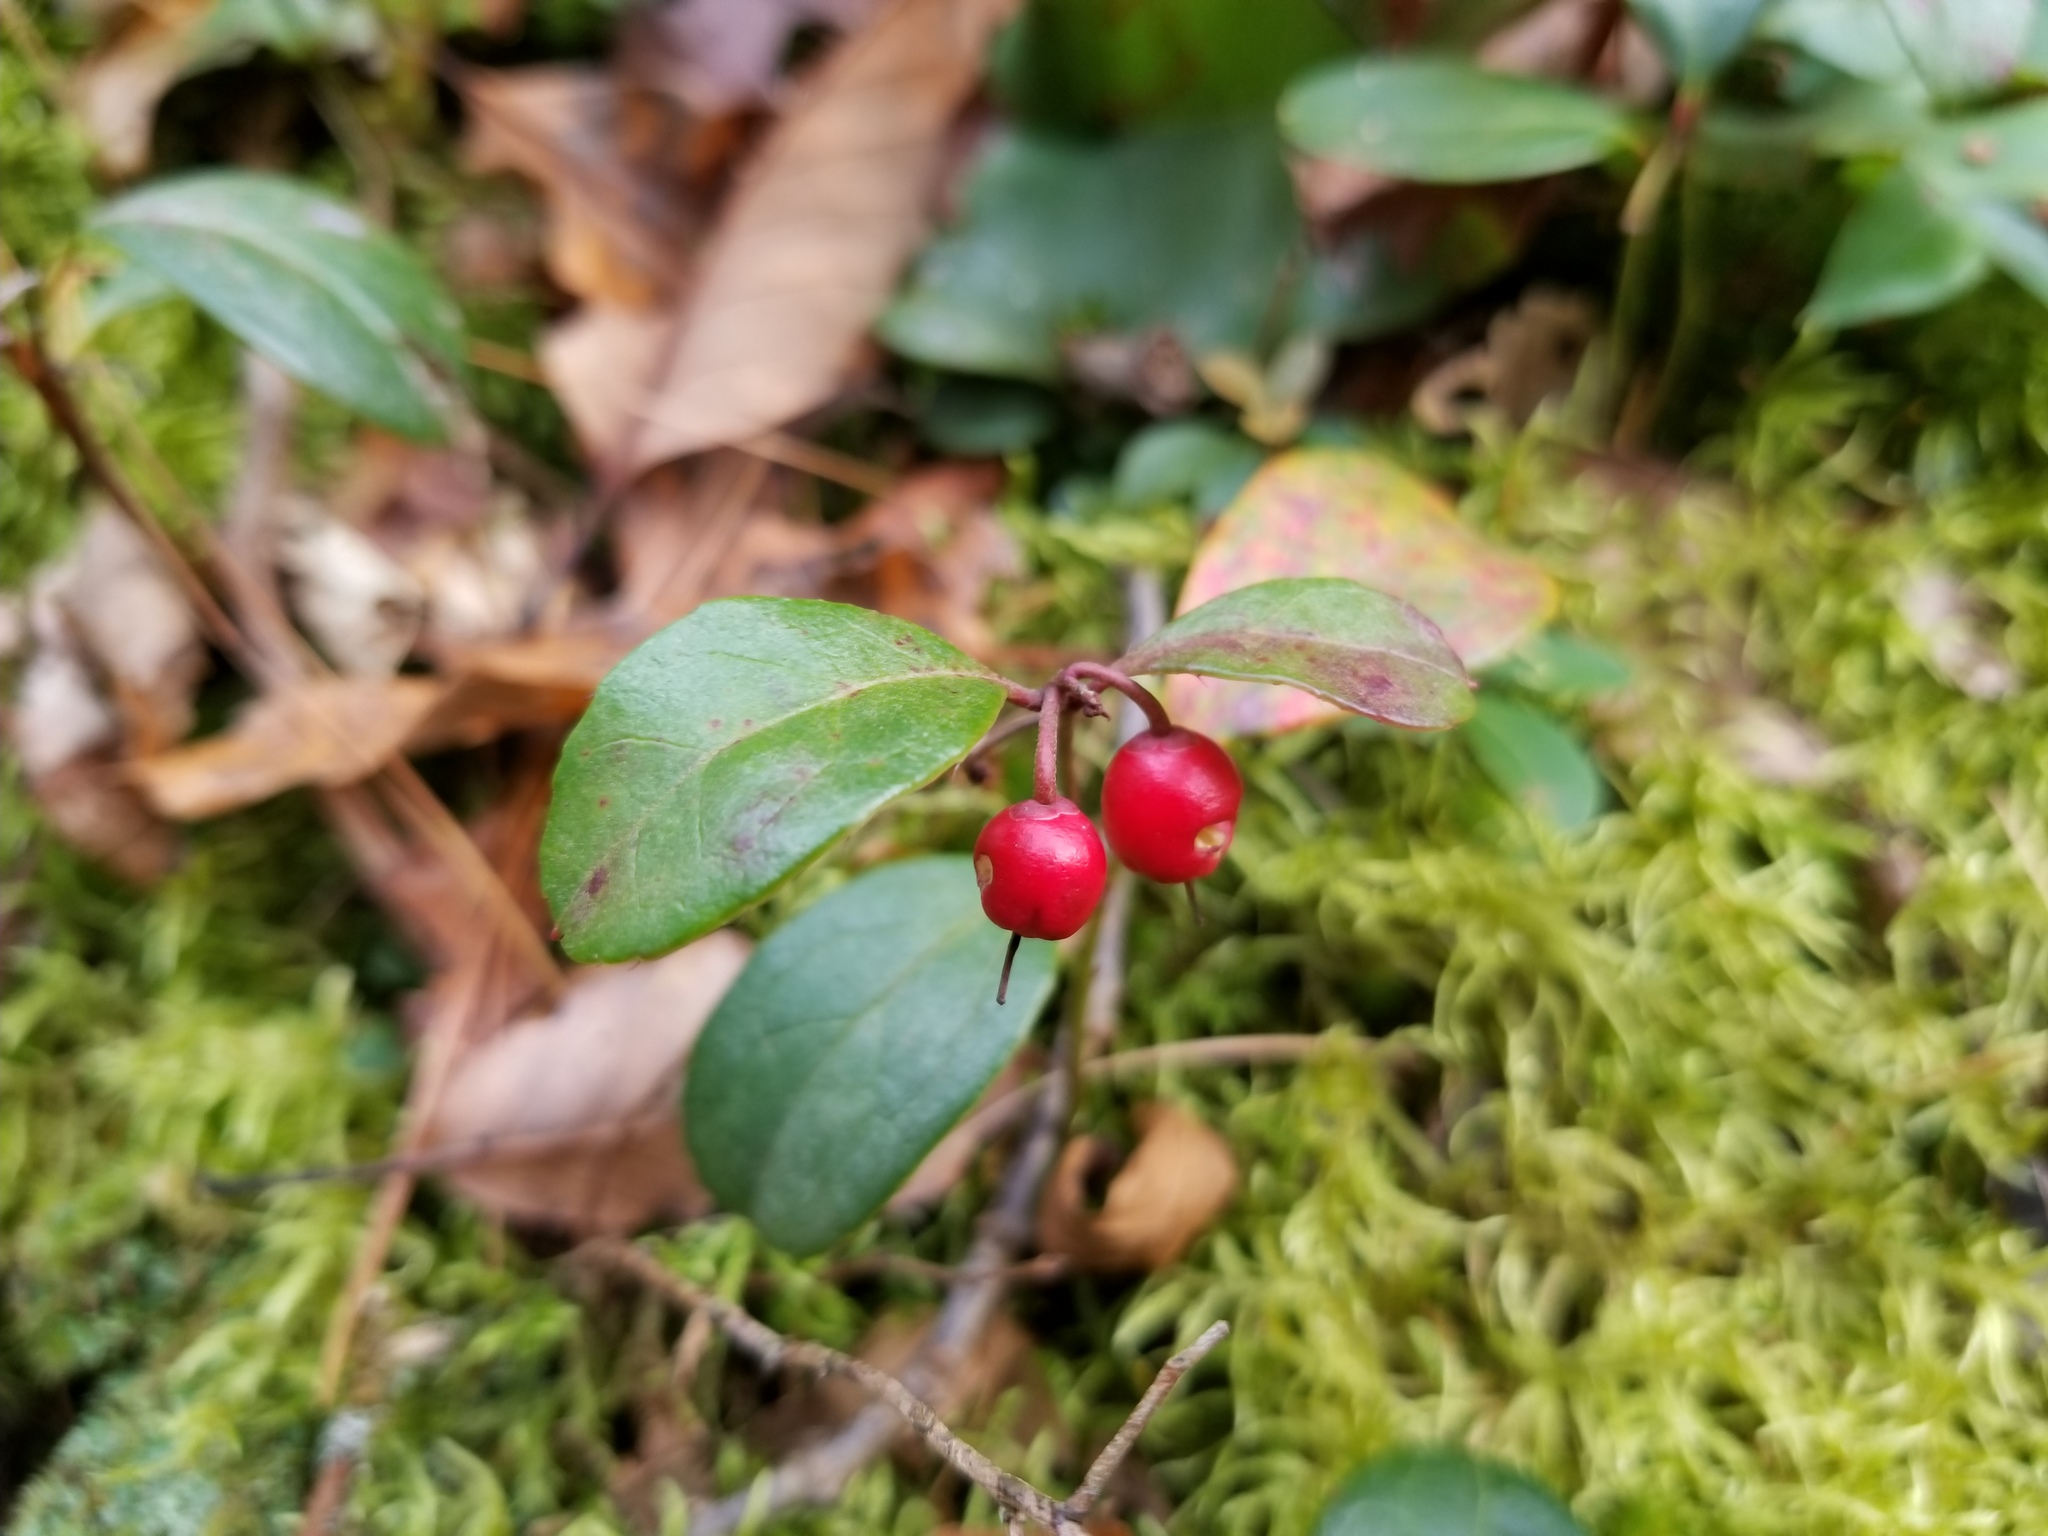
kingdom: Plantae
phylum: Tracheophyta
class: Magnoliopsida
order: Ericales
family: Ericaceae
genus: Gaultheria
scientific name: Gaultheria procumbens
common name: Checkerberry
